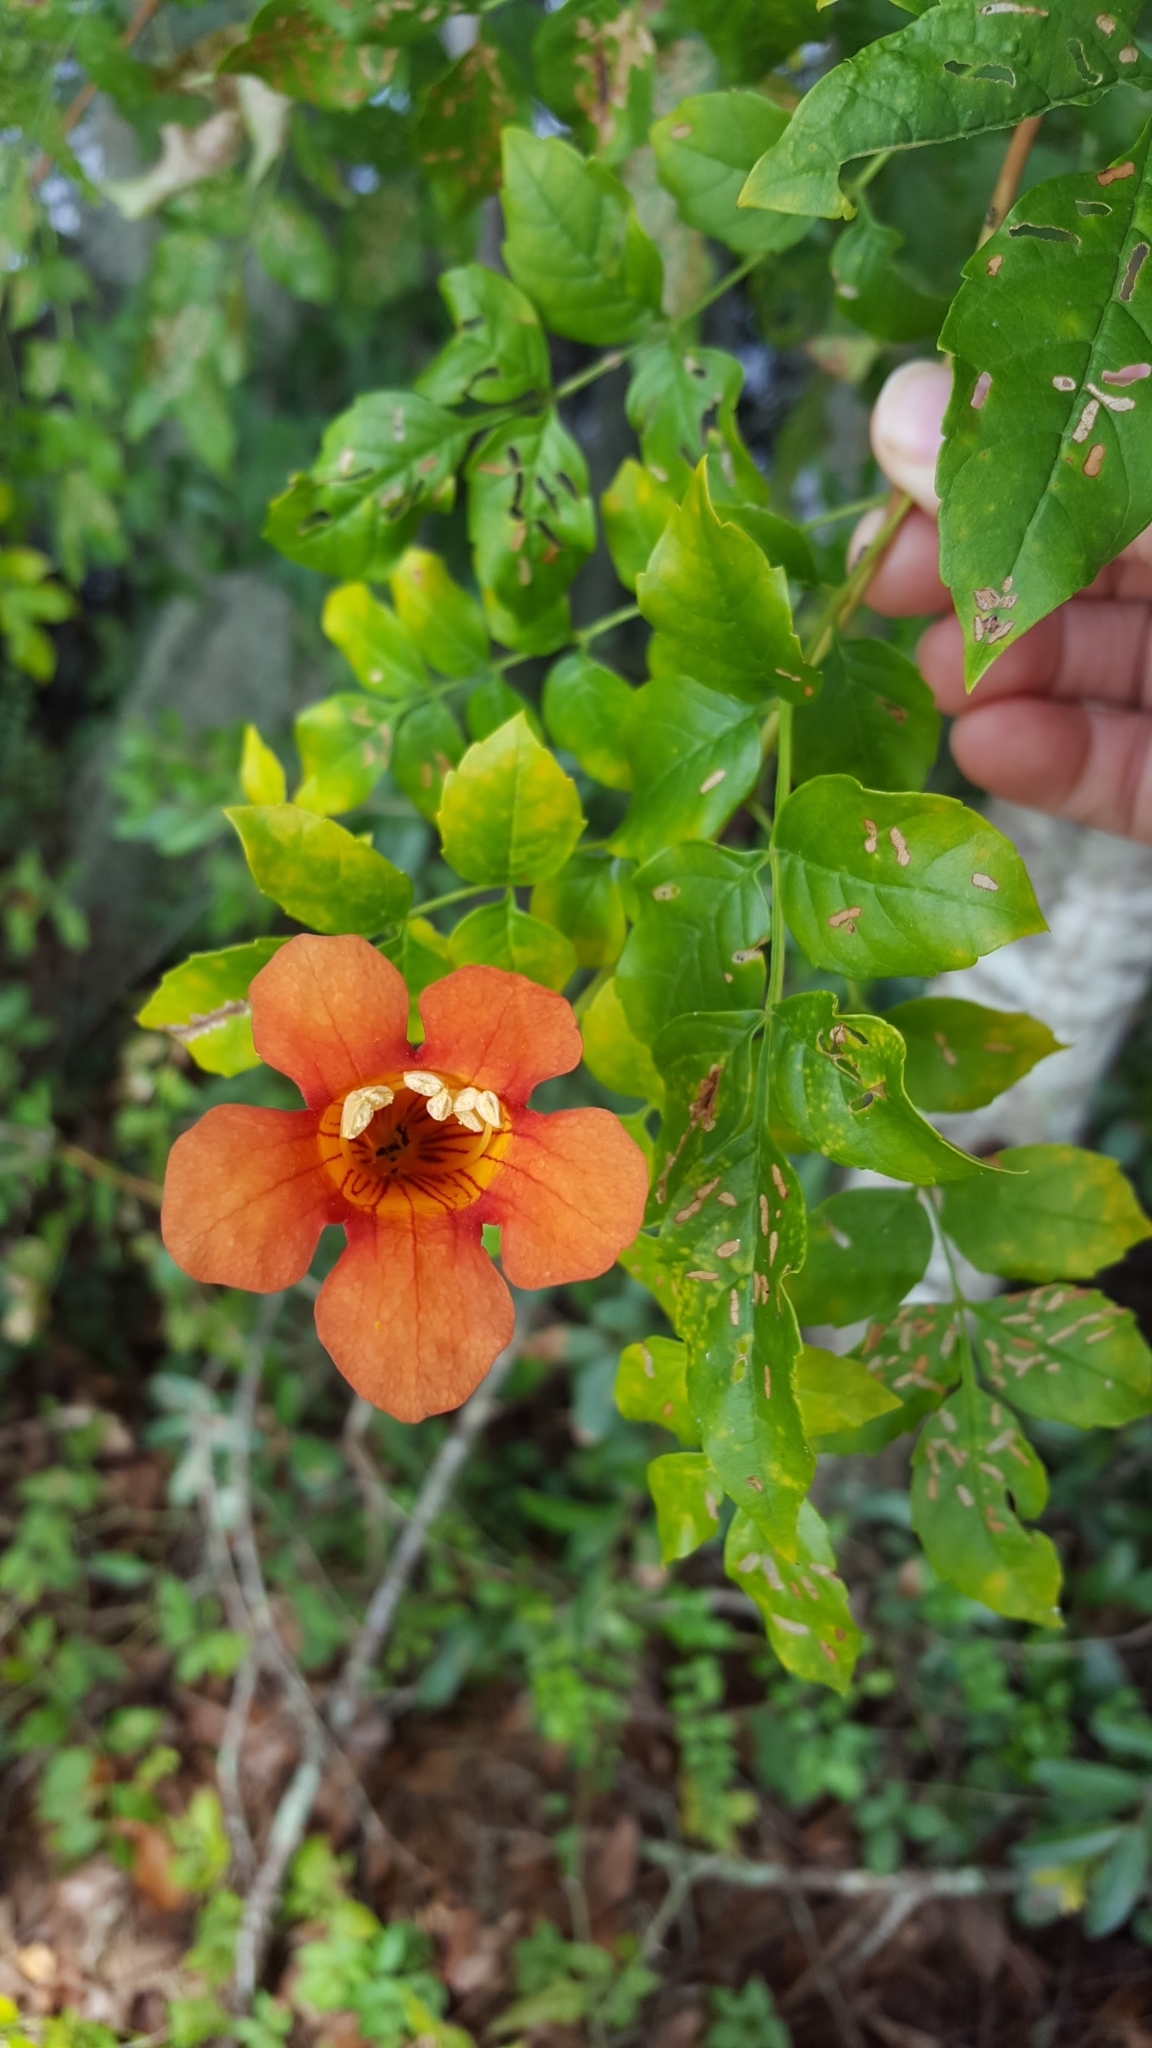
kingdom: Plantae
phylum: Tracheophyta
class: Magnoliopsida
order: Lamiales
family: Bignoniaceae
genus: Campsis
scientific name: Campsis radicans
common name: Trumpet-creeper
